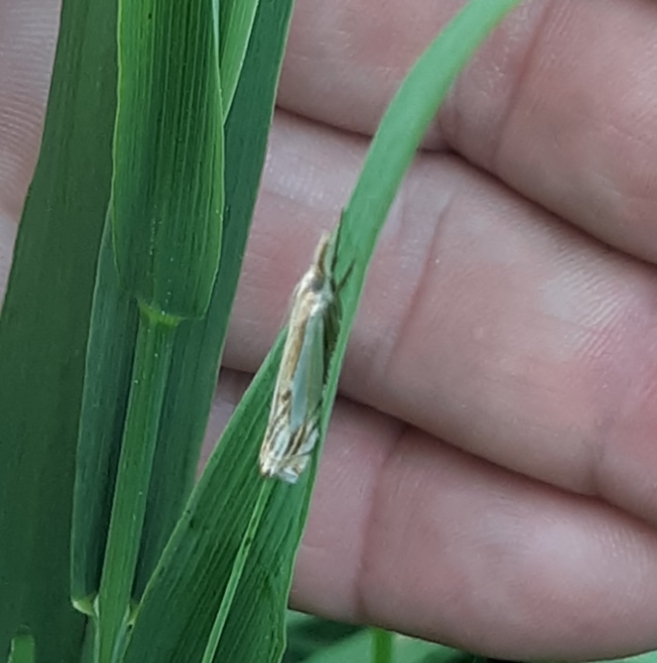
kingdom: Animalia
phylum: Arthropoda
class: Insecta
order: Lepidoptera
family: Crambidae
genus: Crambus
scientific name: Crambus agitatellus
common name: Double-banded grass-veneer
